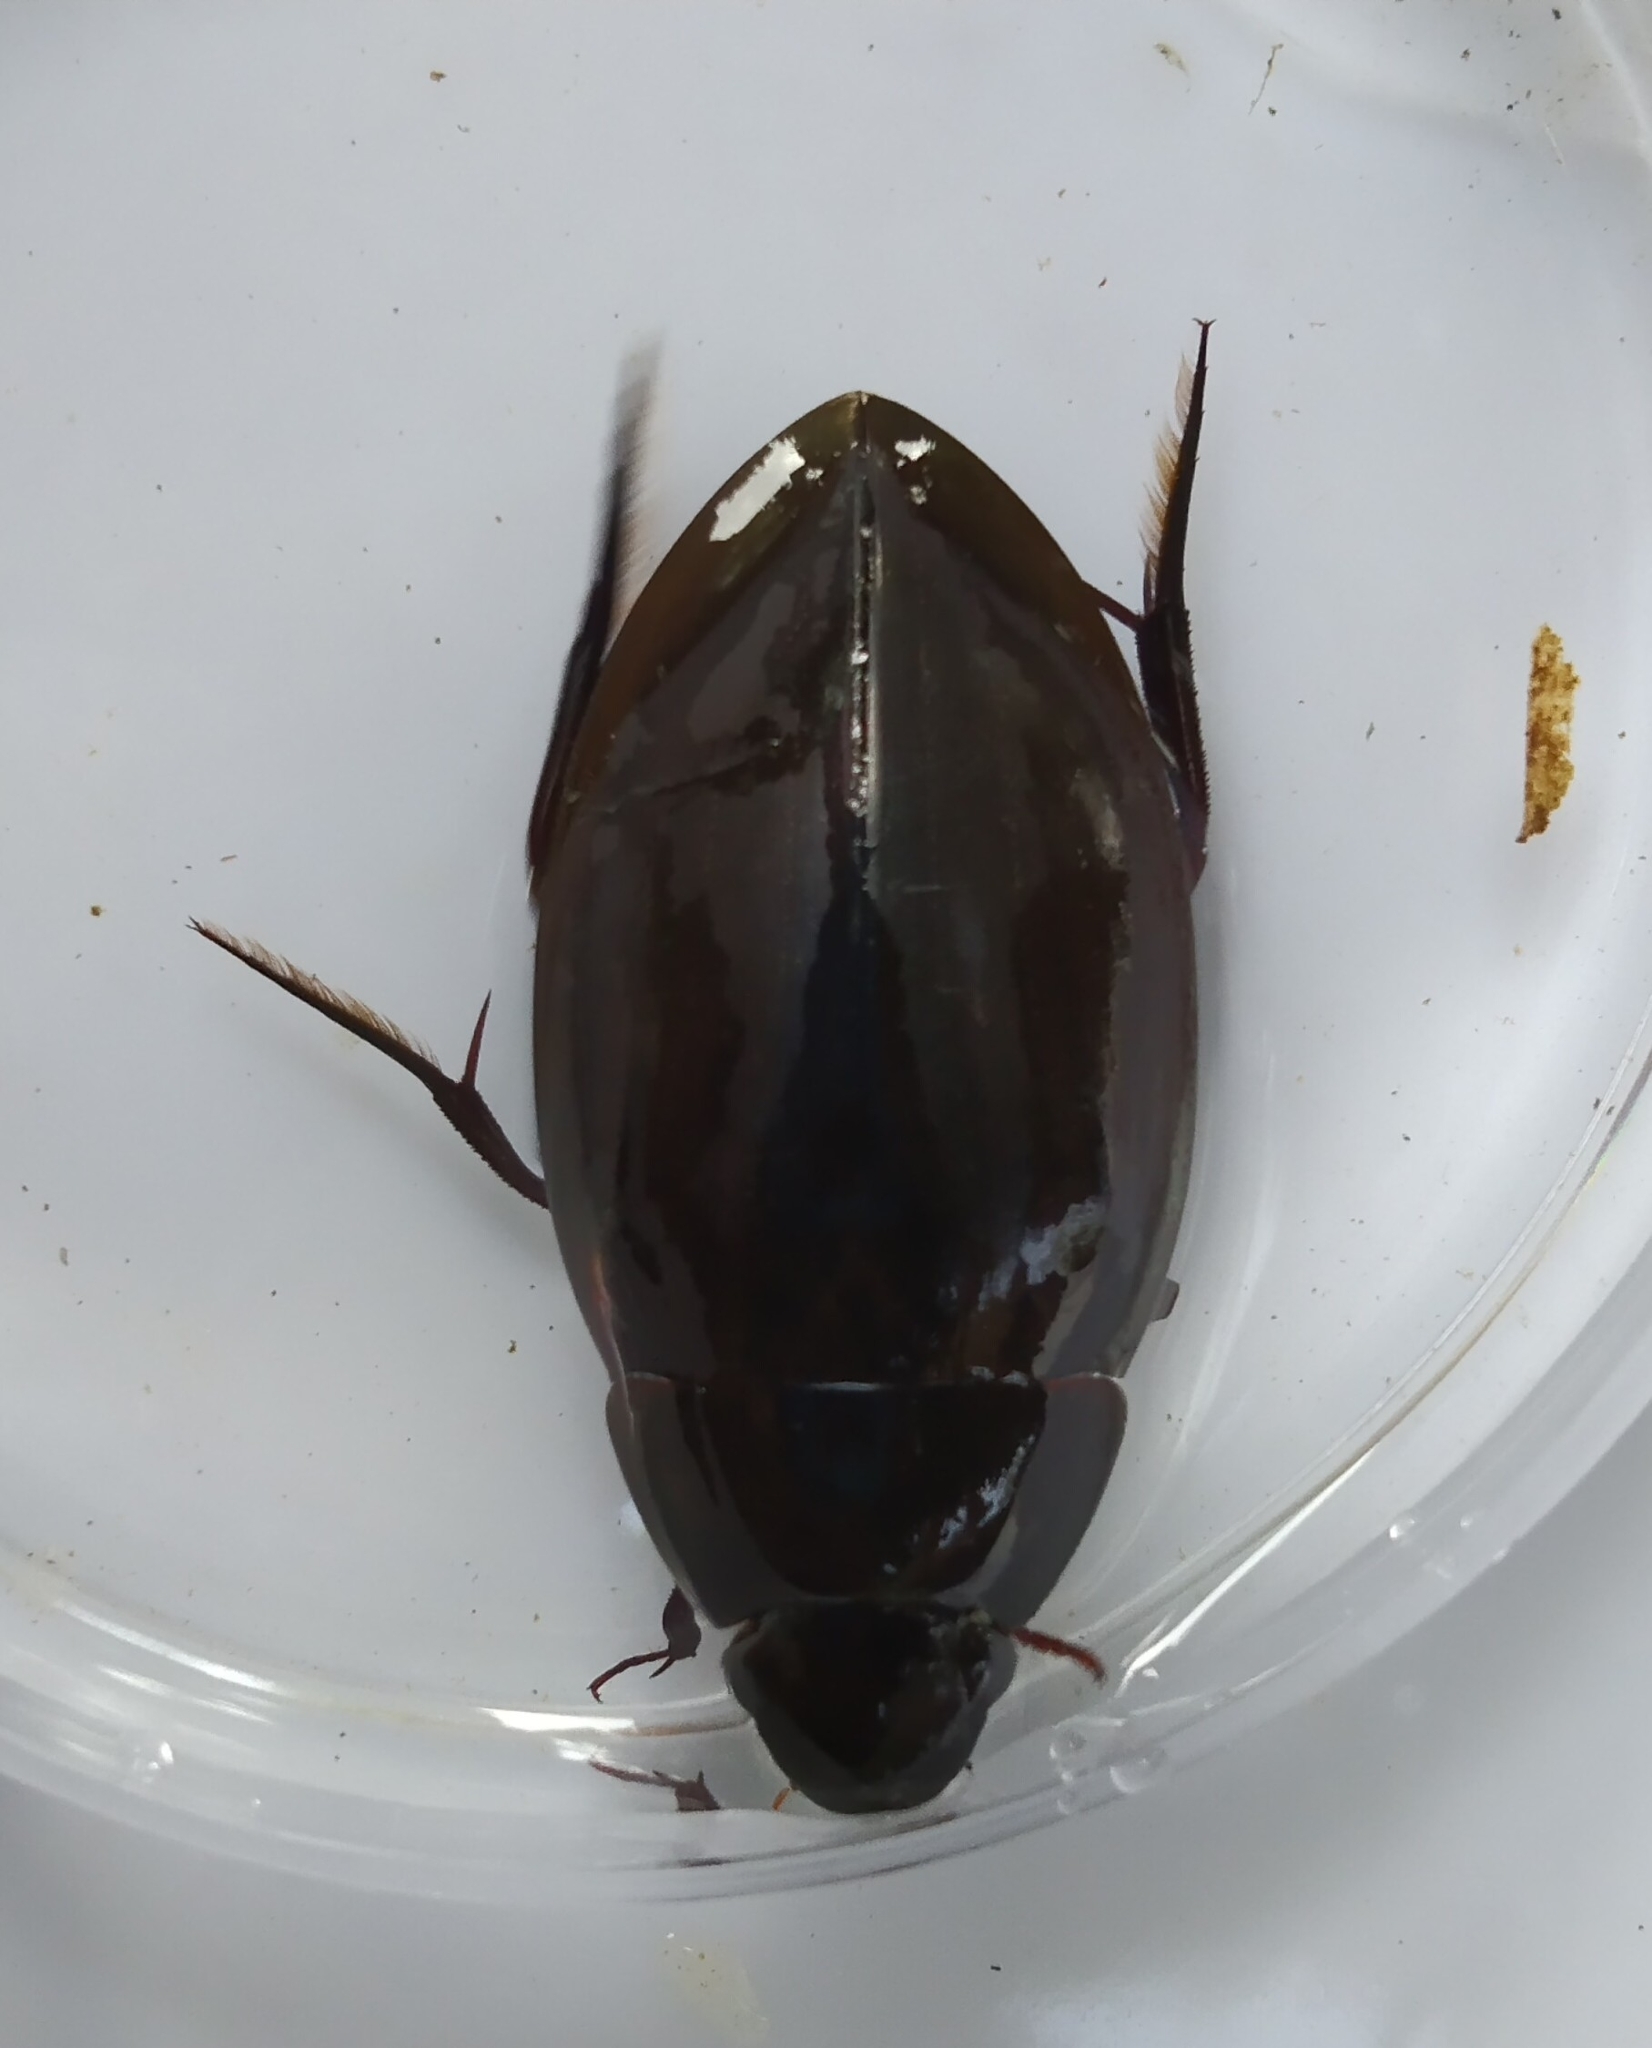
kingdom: Animalia
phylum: Arthropoda
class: Insecta
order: Coleoptera
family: Hydrophilidae
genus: Hydrophilus
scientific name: Hydrophilus
